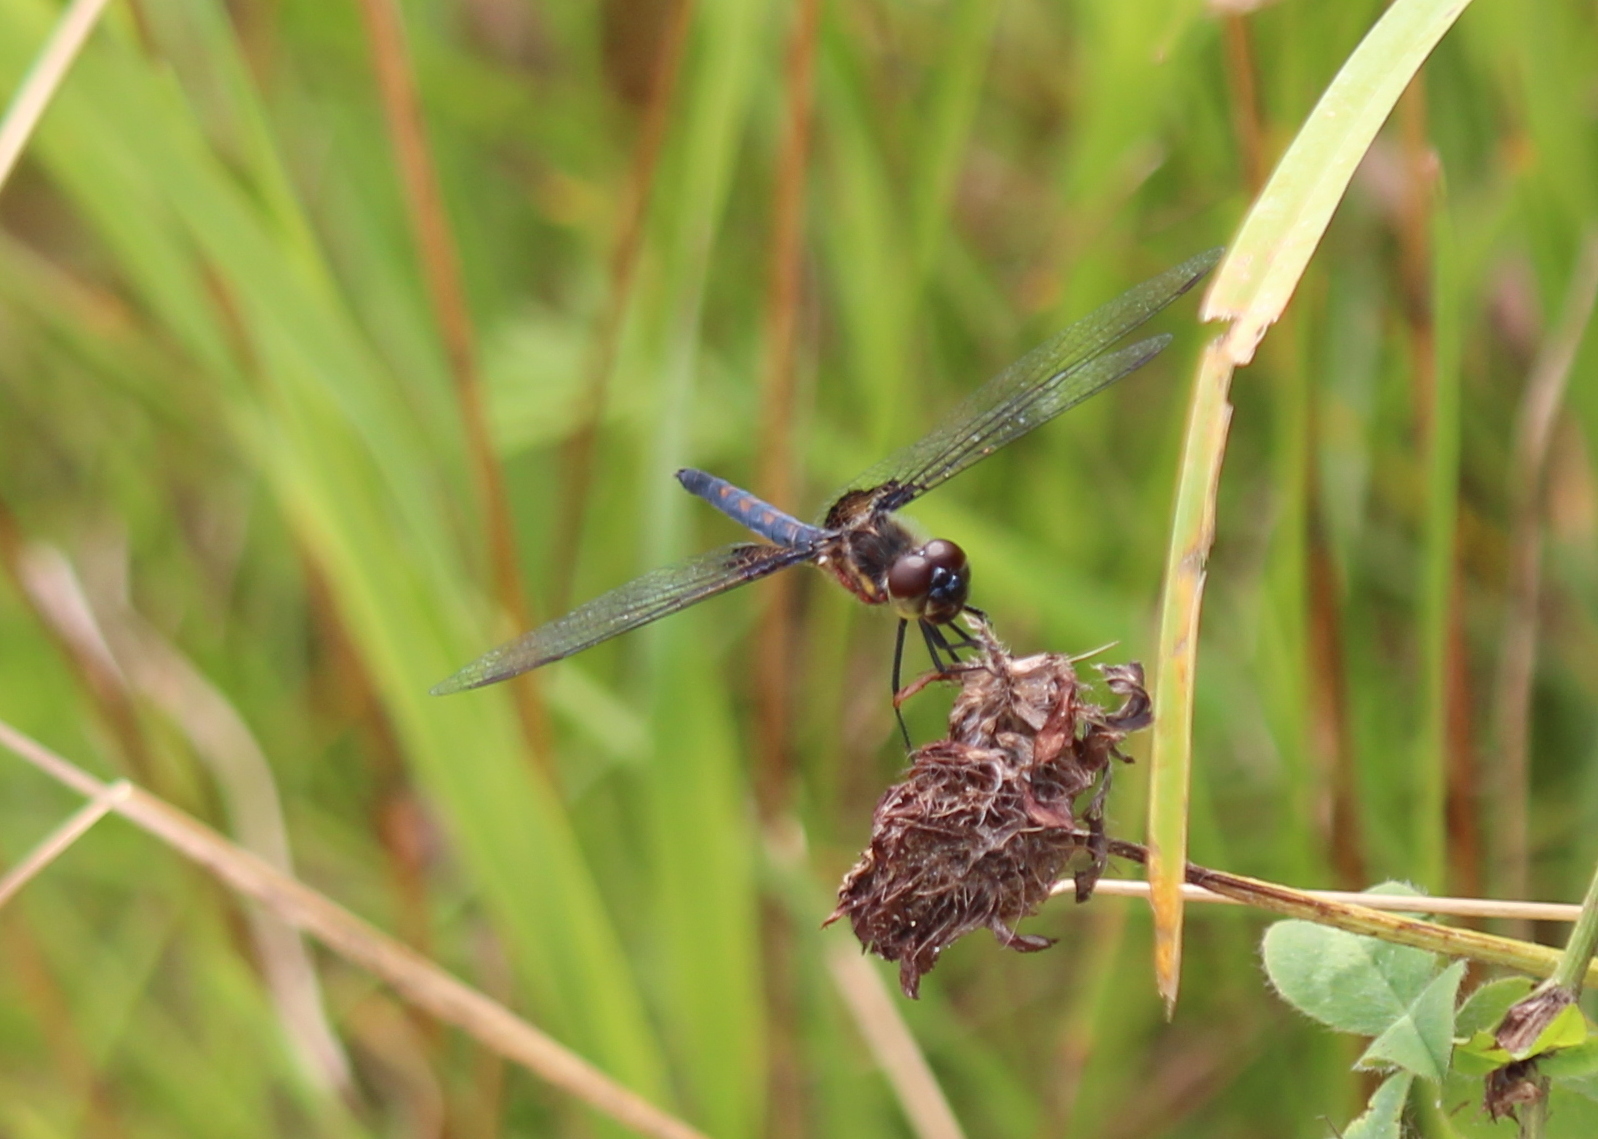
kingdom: Animalia
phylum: Arthropoda
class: Insecta
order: Odonata
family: Libellulidae
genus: Celithemis
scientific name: Celithemis martha
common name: Martha's pennant
